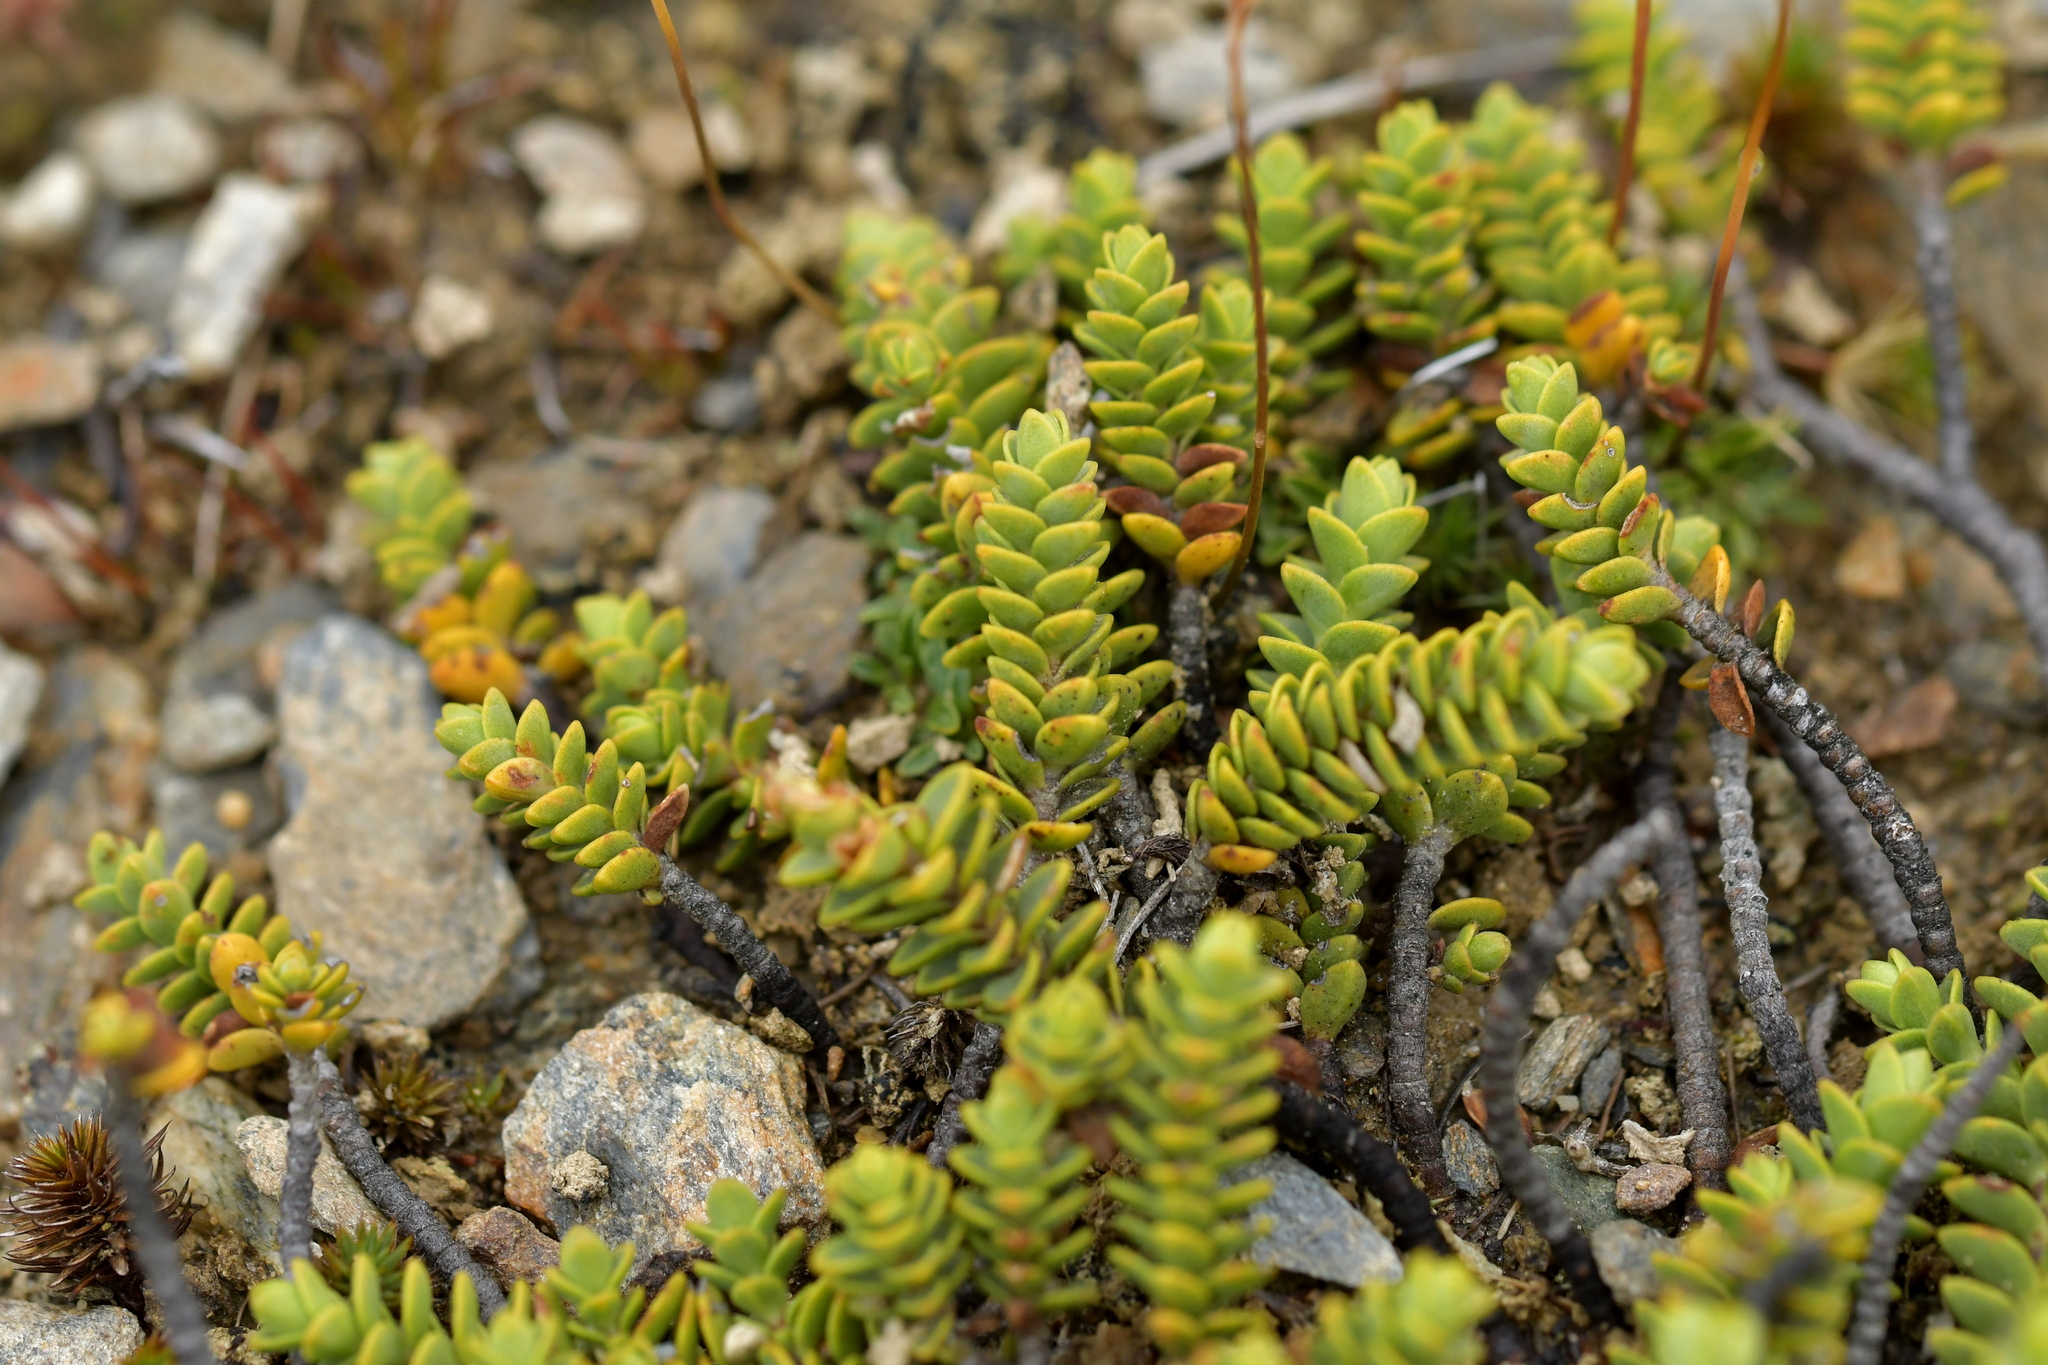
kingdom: Plantae
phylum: Tracheophyta
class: Magnoliopsida
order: Lamiales
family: Plantaginaceae
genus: Veronica
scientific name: Veronica buchananii
